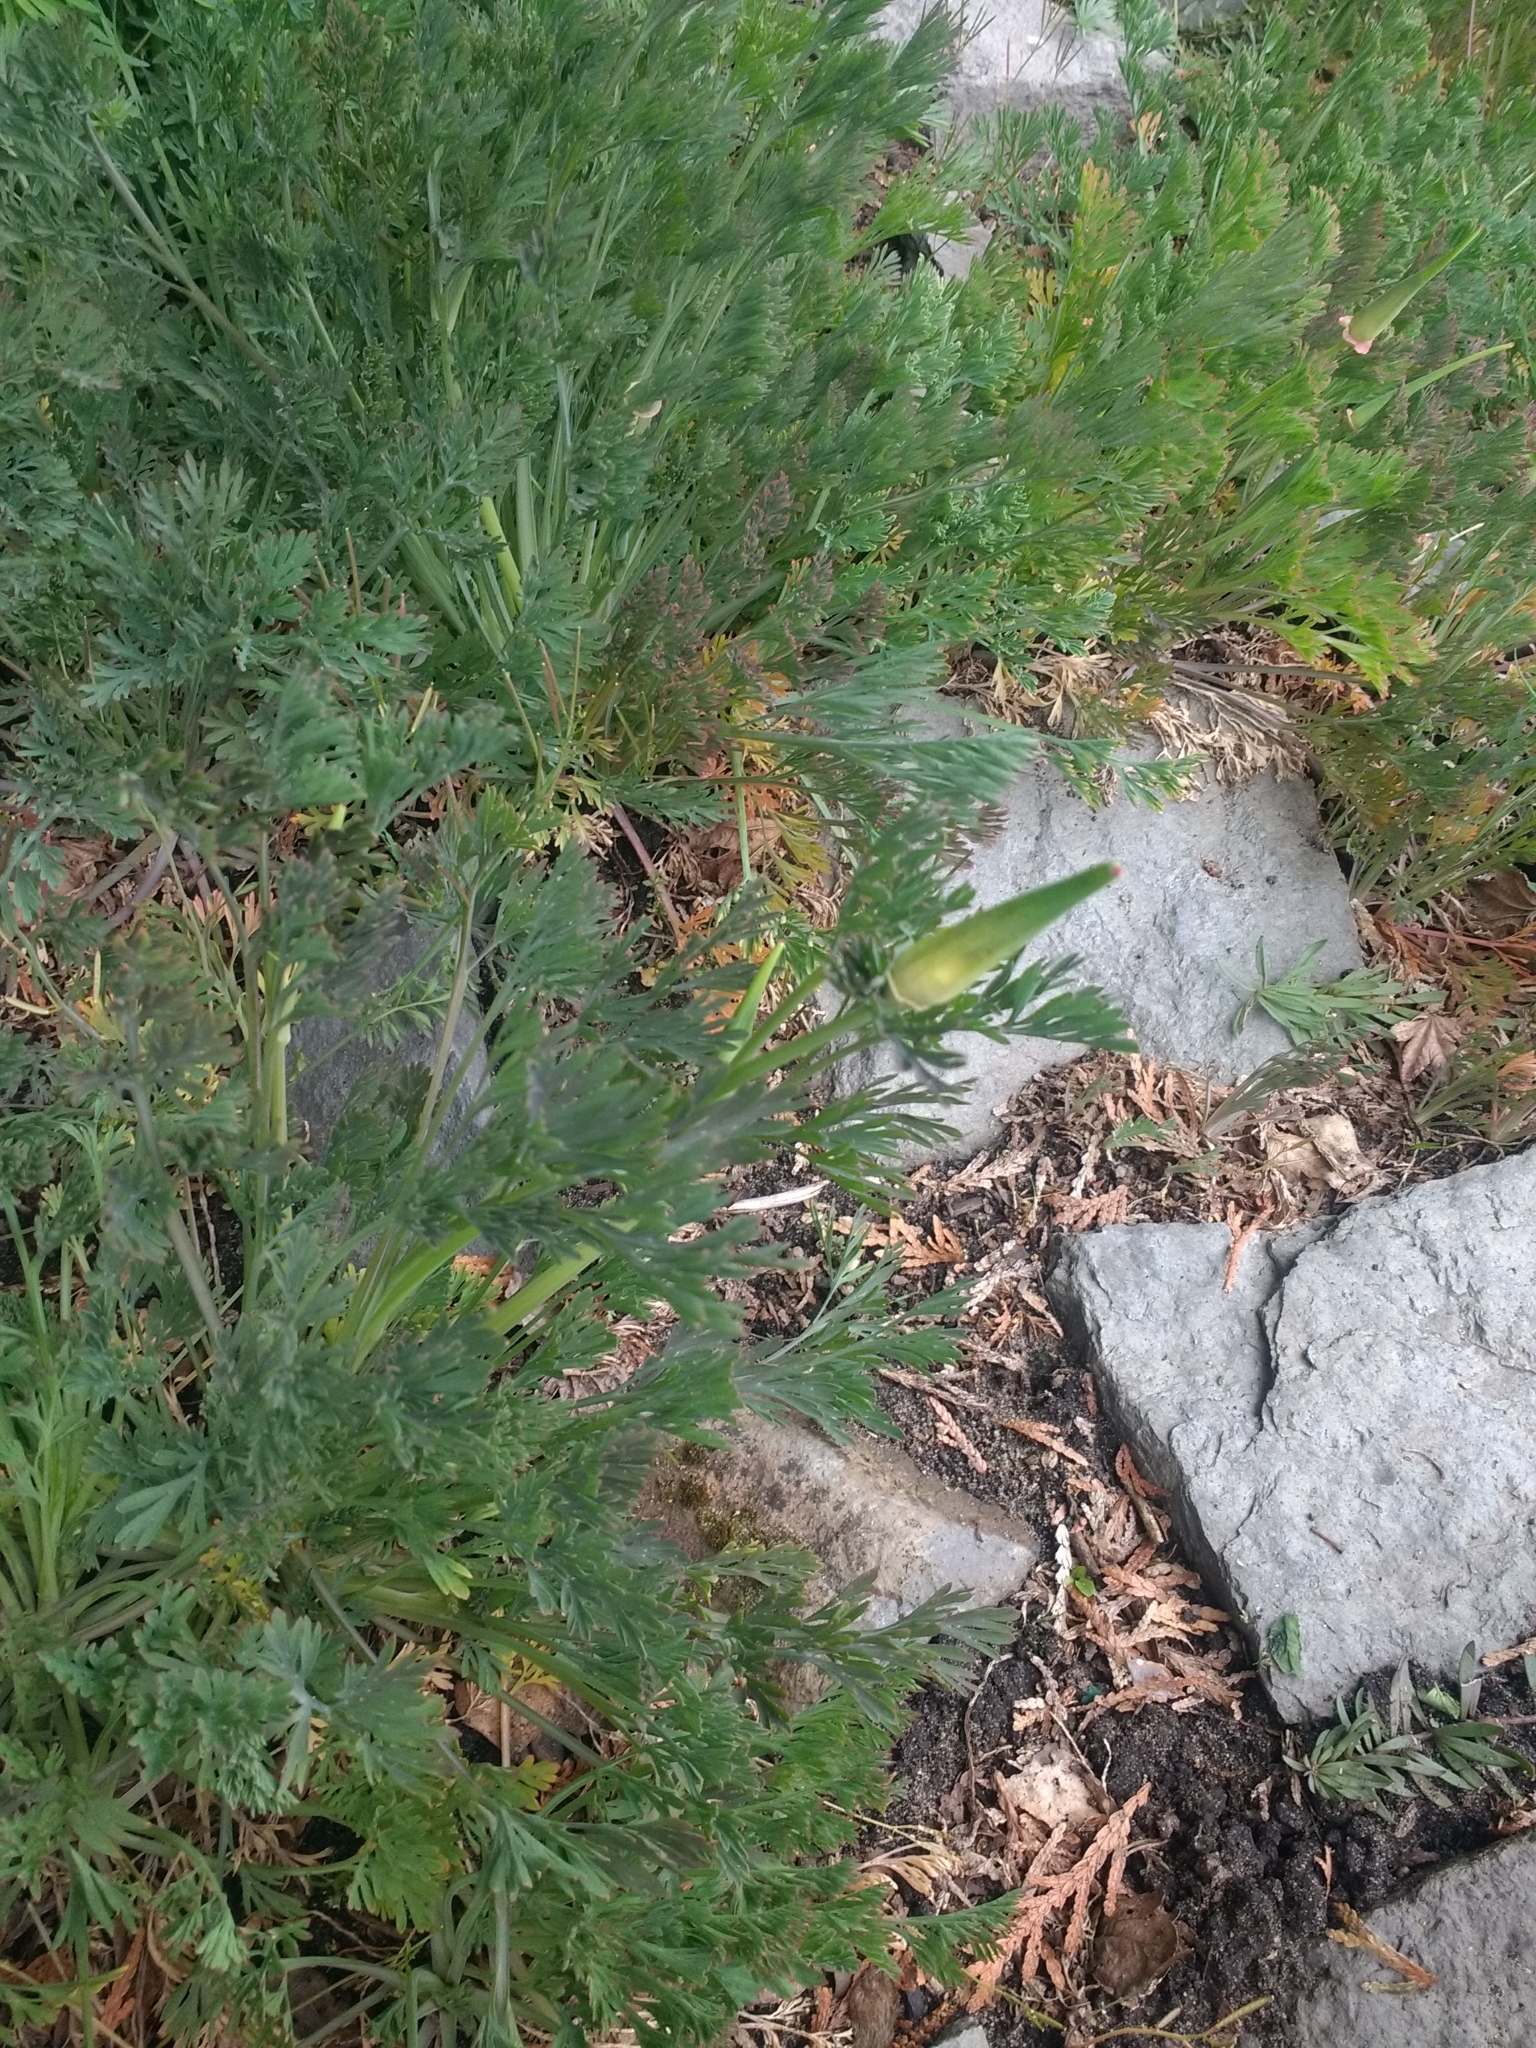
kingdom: Plantae
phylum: Tracheophyta
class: Magnoliopsida
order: Ranunculales
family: Papaveraceae
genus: Eschscholzia
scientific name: Eschscholzia californica
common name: California poppy
